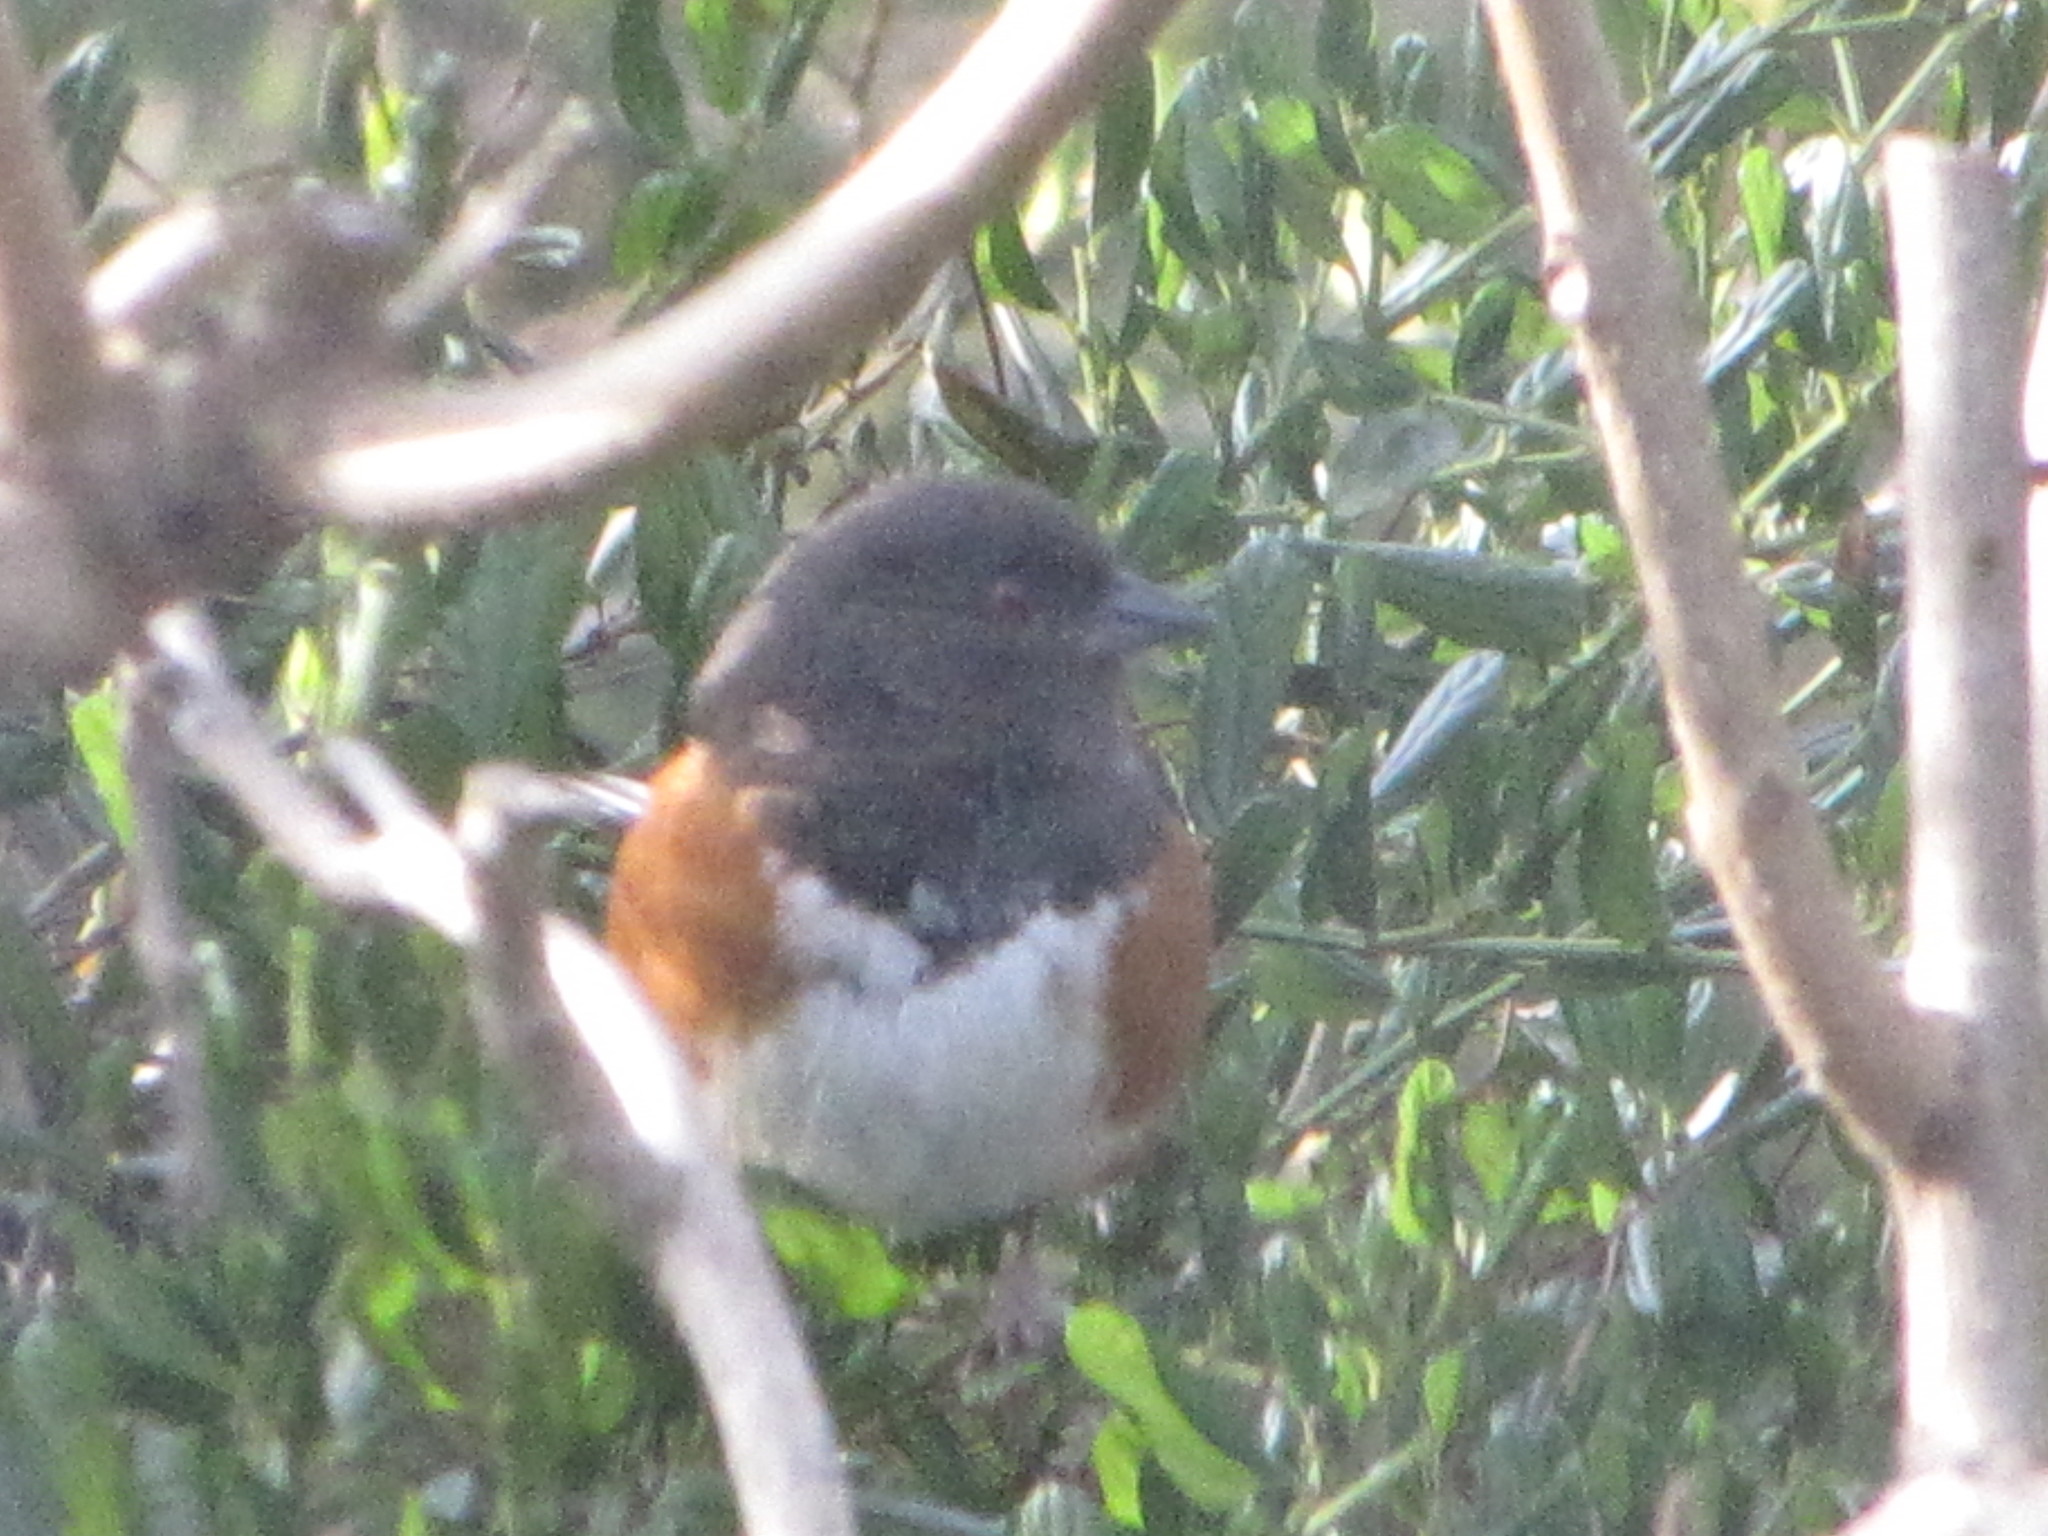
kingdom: Animalia
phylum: Chordata
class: Aves
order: Passeriformes
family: Passerellidae
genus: Pipilo
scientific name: Pipilo maculatus
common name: Spotted towhee
